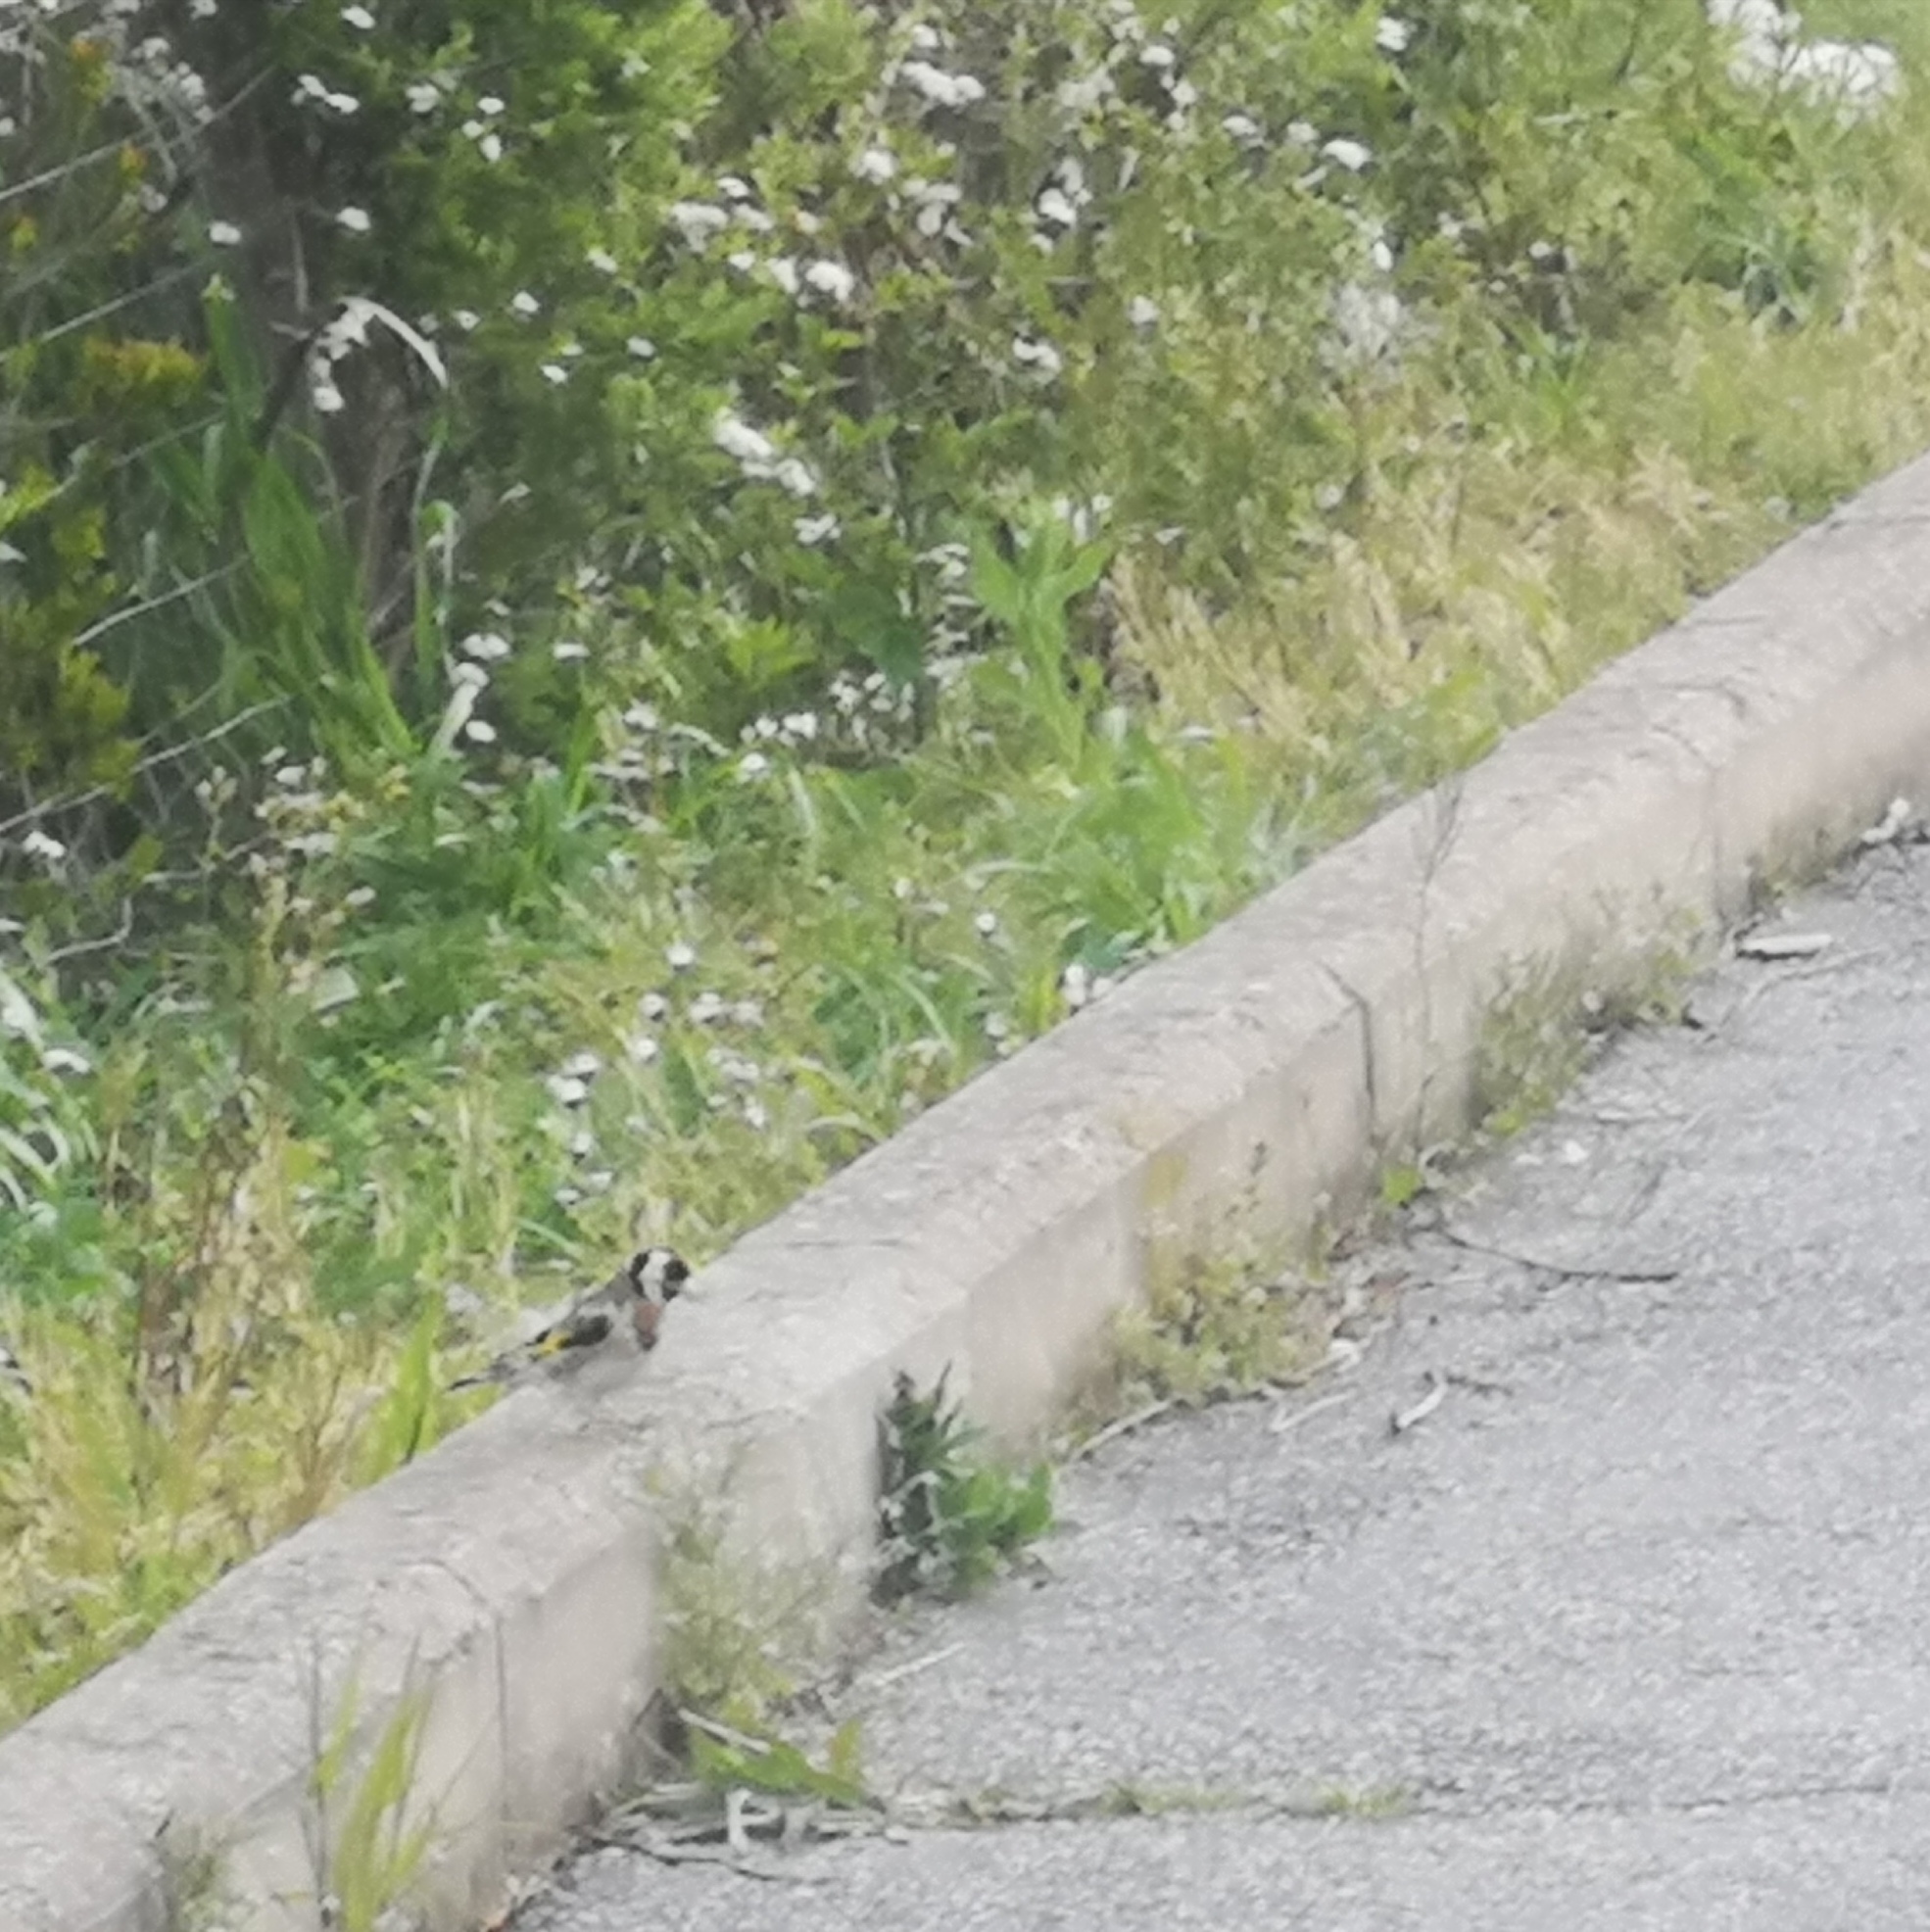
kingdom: Animalia
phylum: Chordata
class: Aves
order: Passeriformes
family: Fringillidae
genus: Carduelis
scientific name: Carduelis carduelis
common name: European goldfinch
